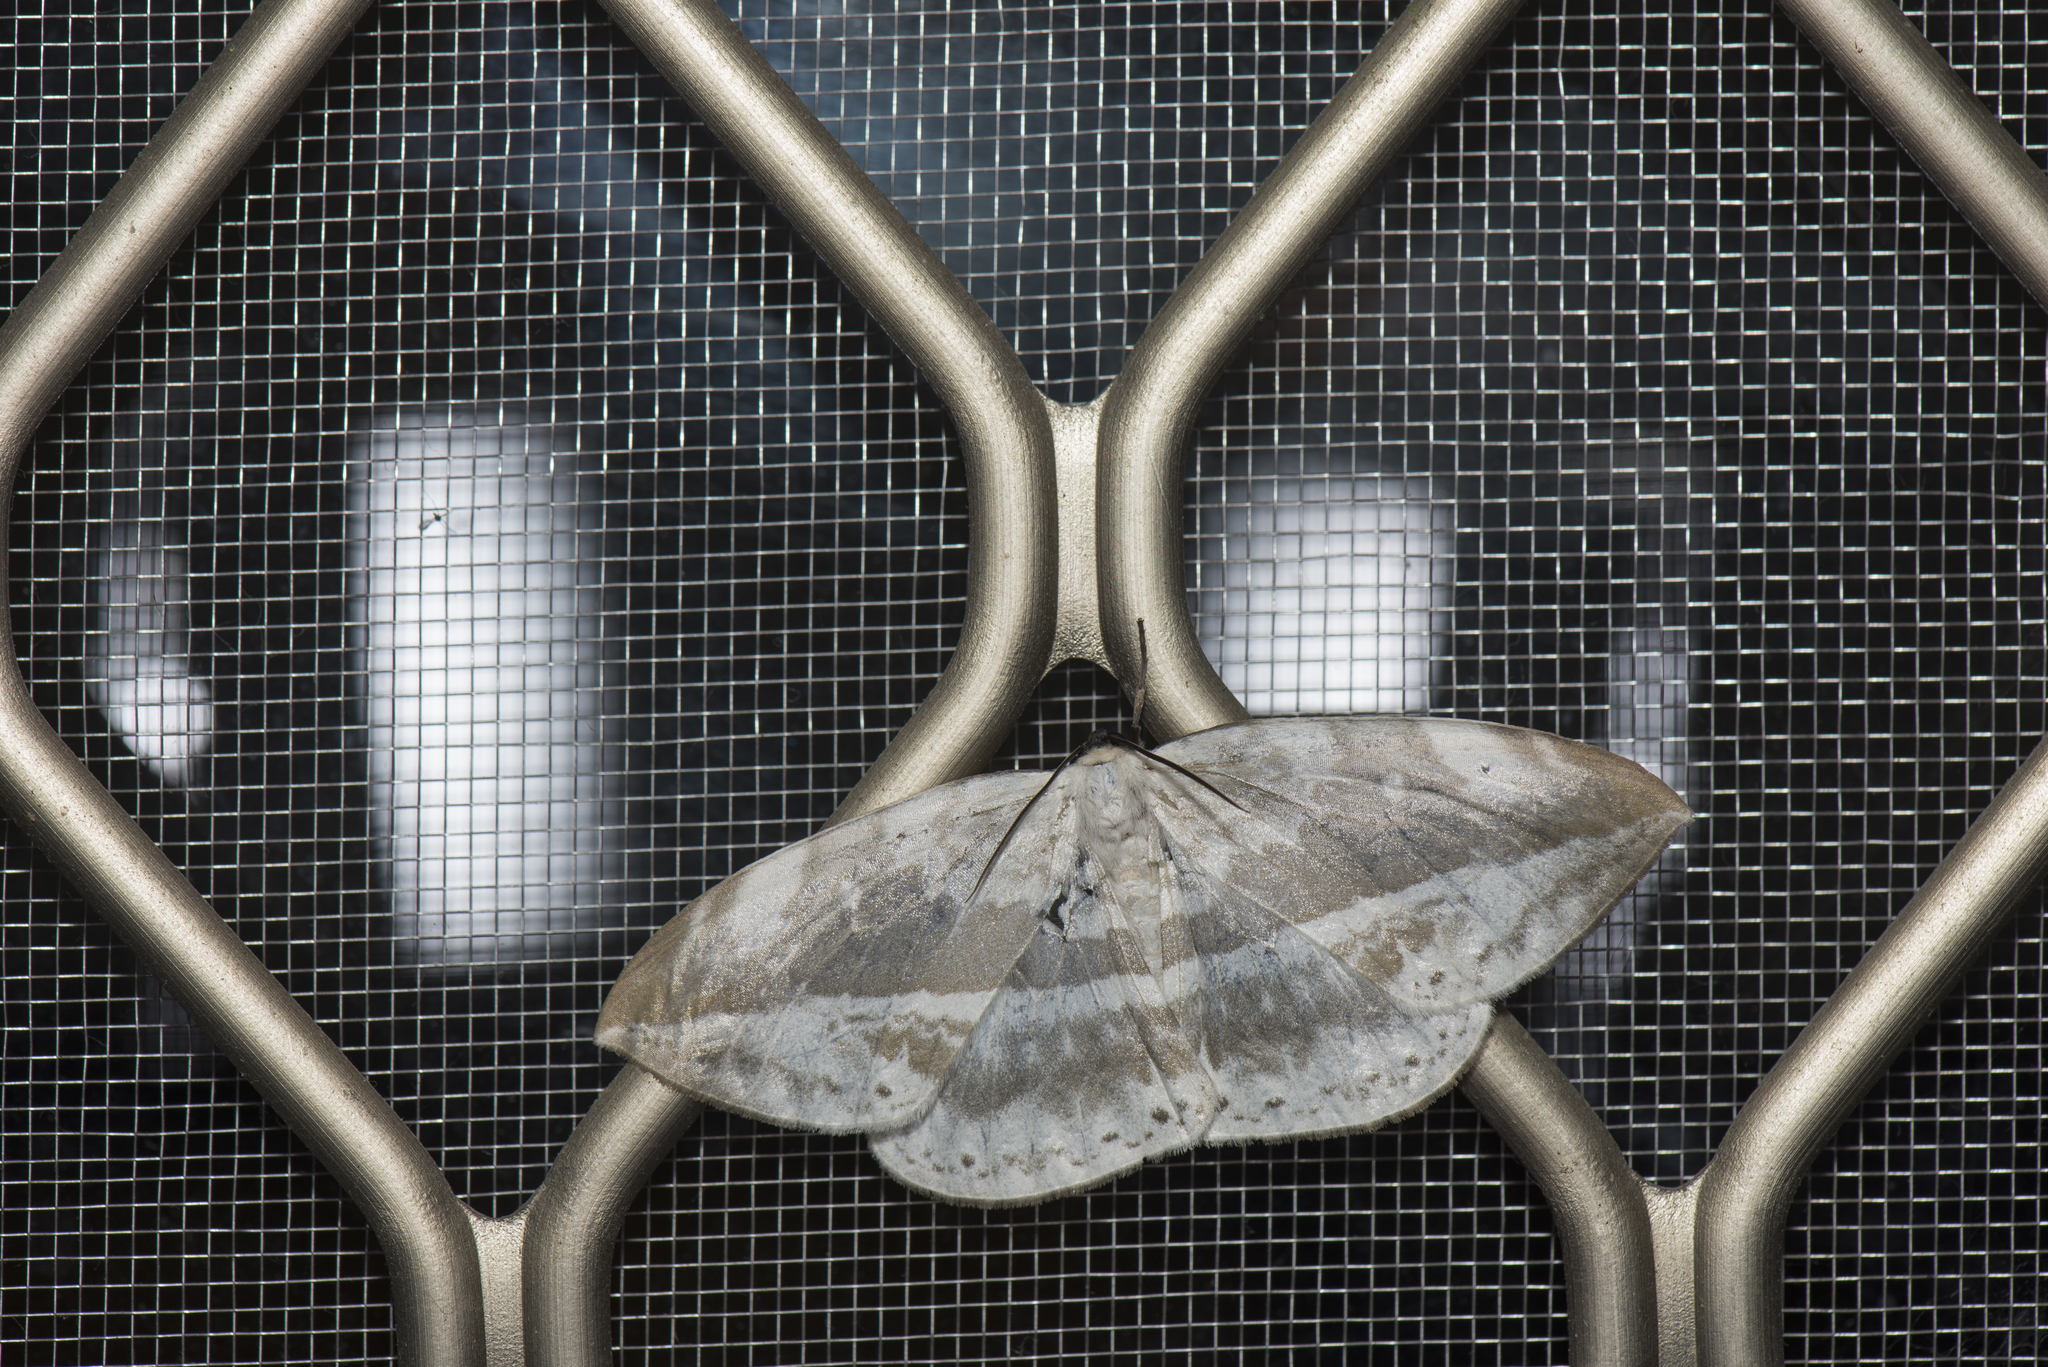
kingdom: Animalia
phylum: Arthropoda
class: Insecta
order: Lepidoptera
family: Drepanidae
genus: Cyclidia
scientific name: Cyclidia substigmaria
